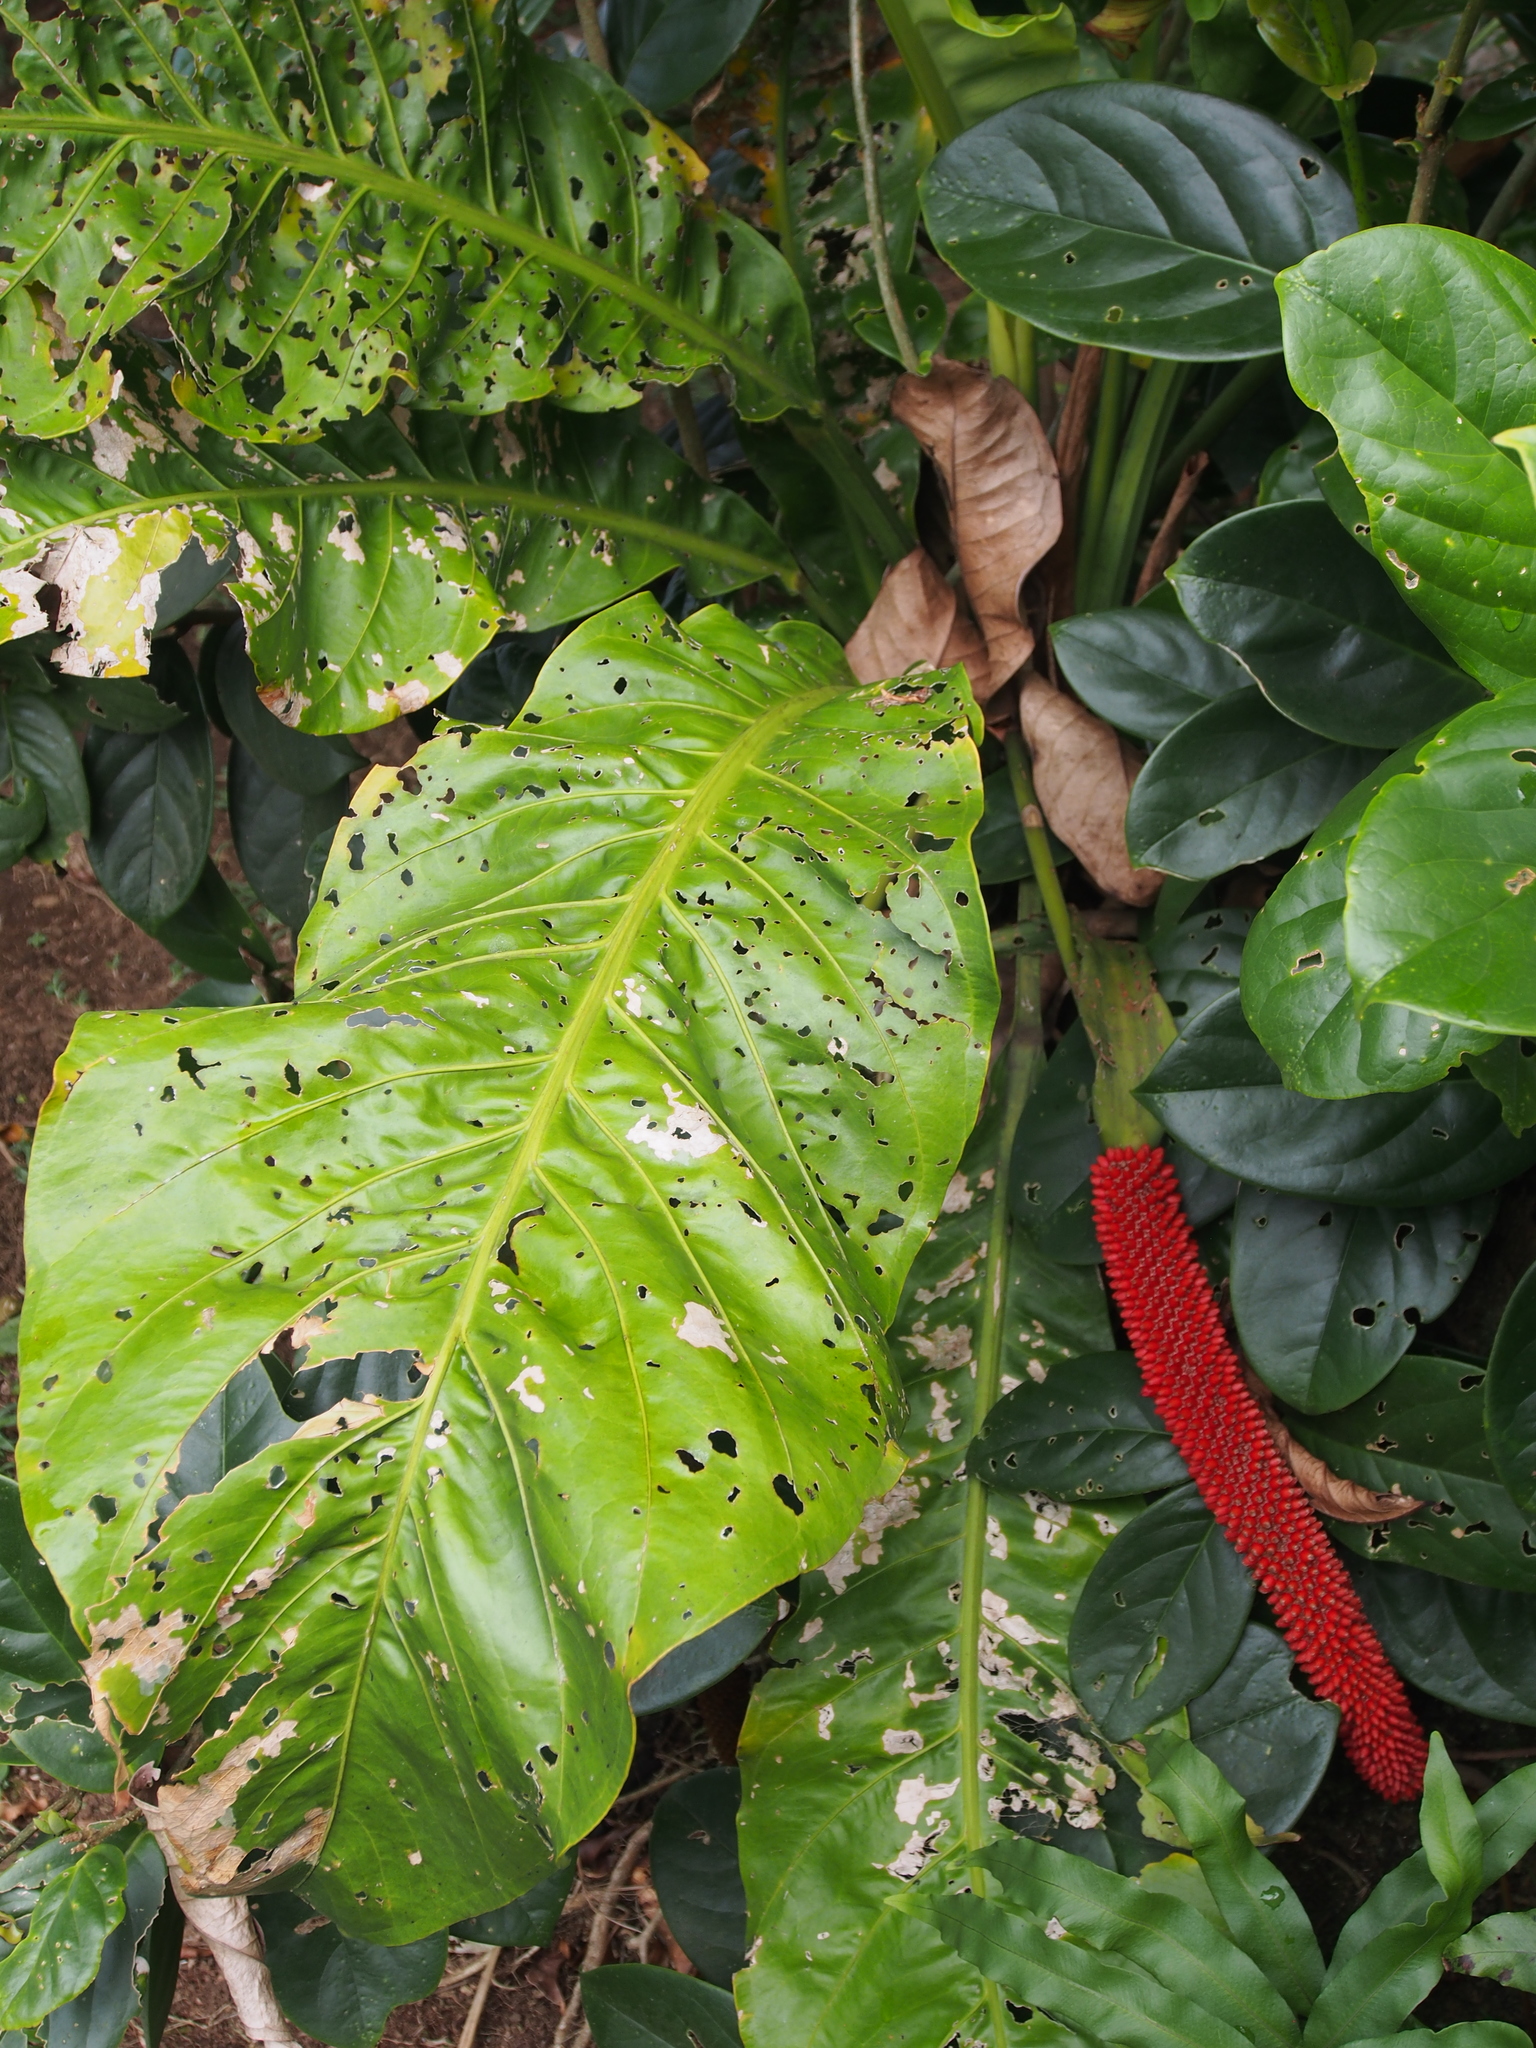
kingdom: Plantae
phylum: Tracheophyta
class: Liliopsida
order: Alismatales
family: Araceae
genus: Anthurium
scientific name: Anthurium upalaense
